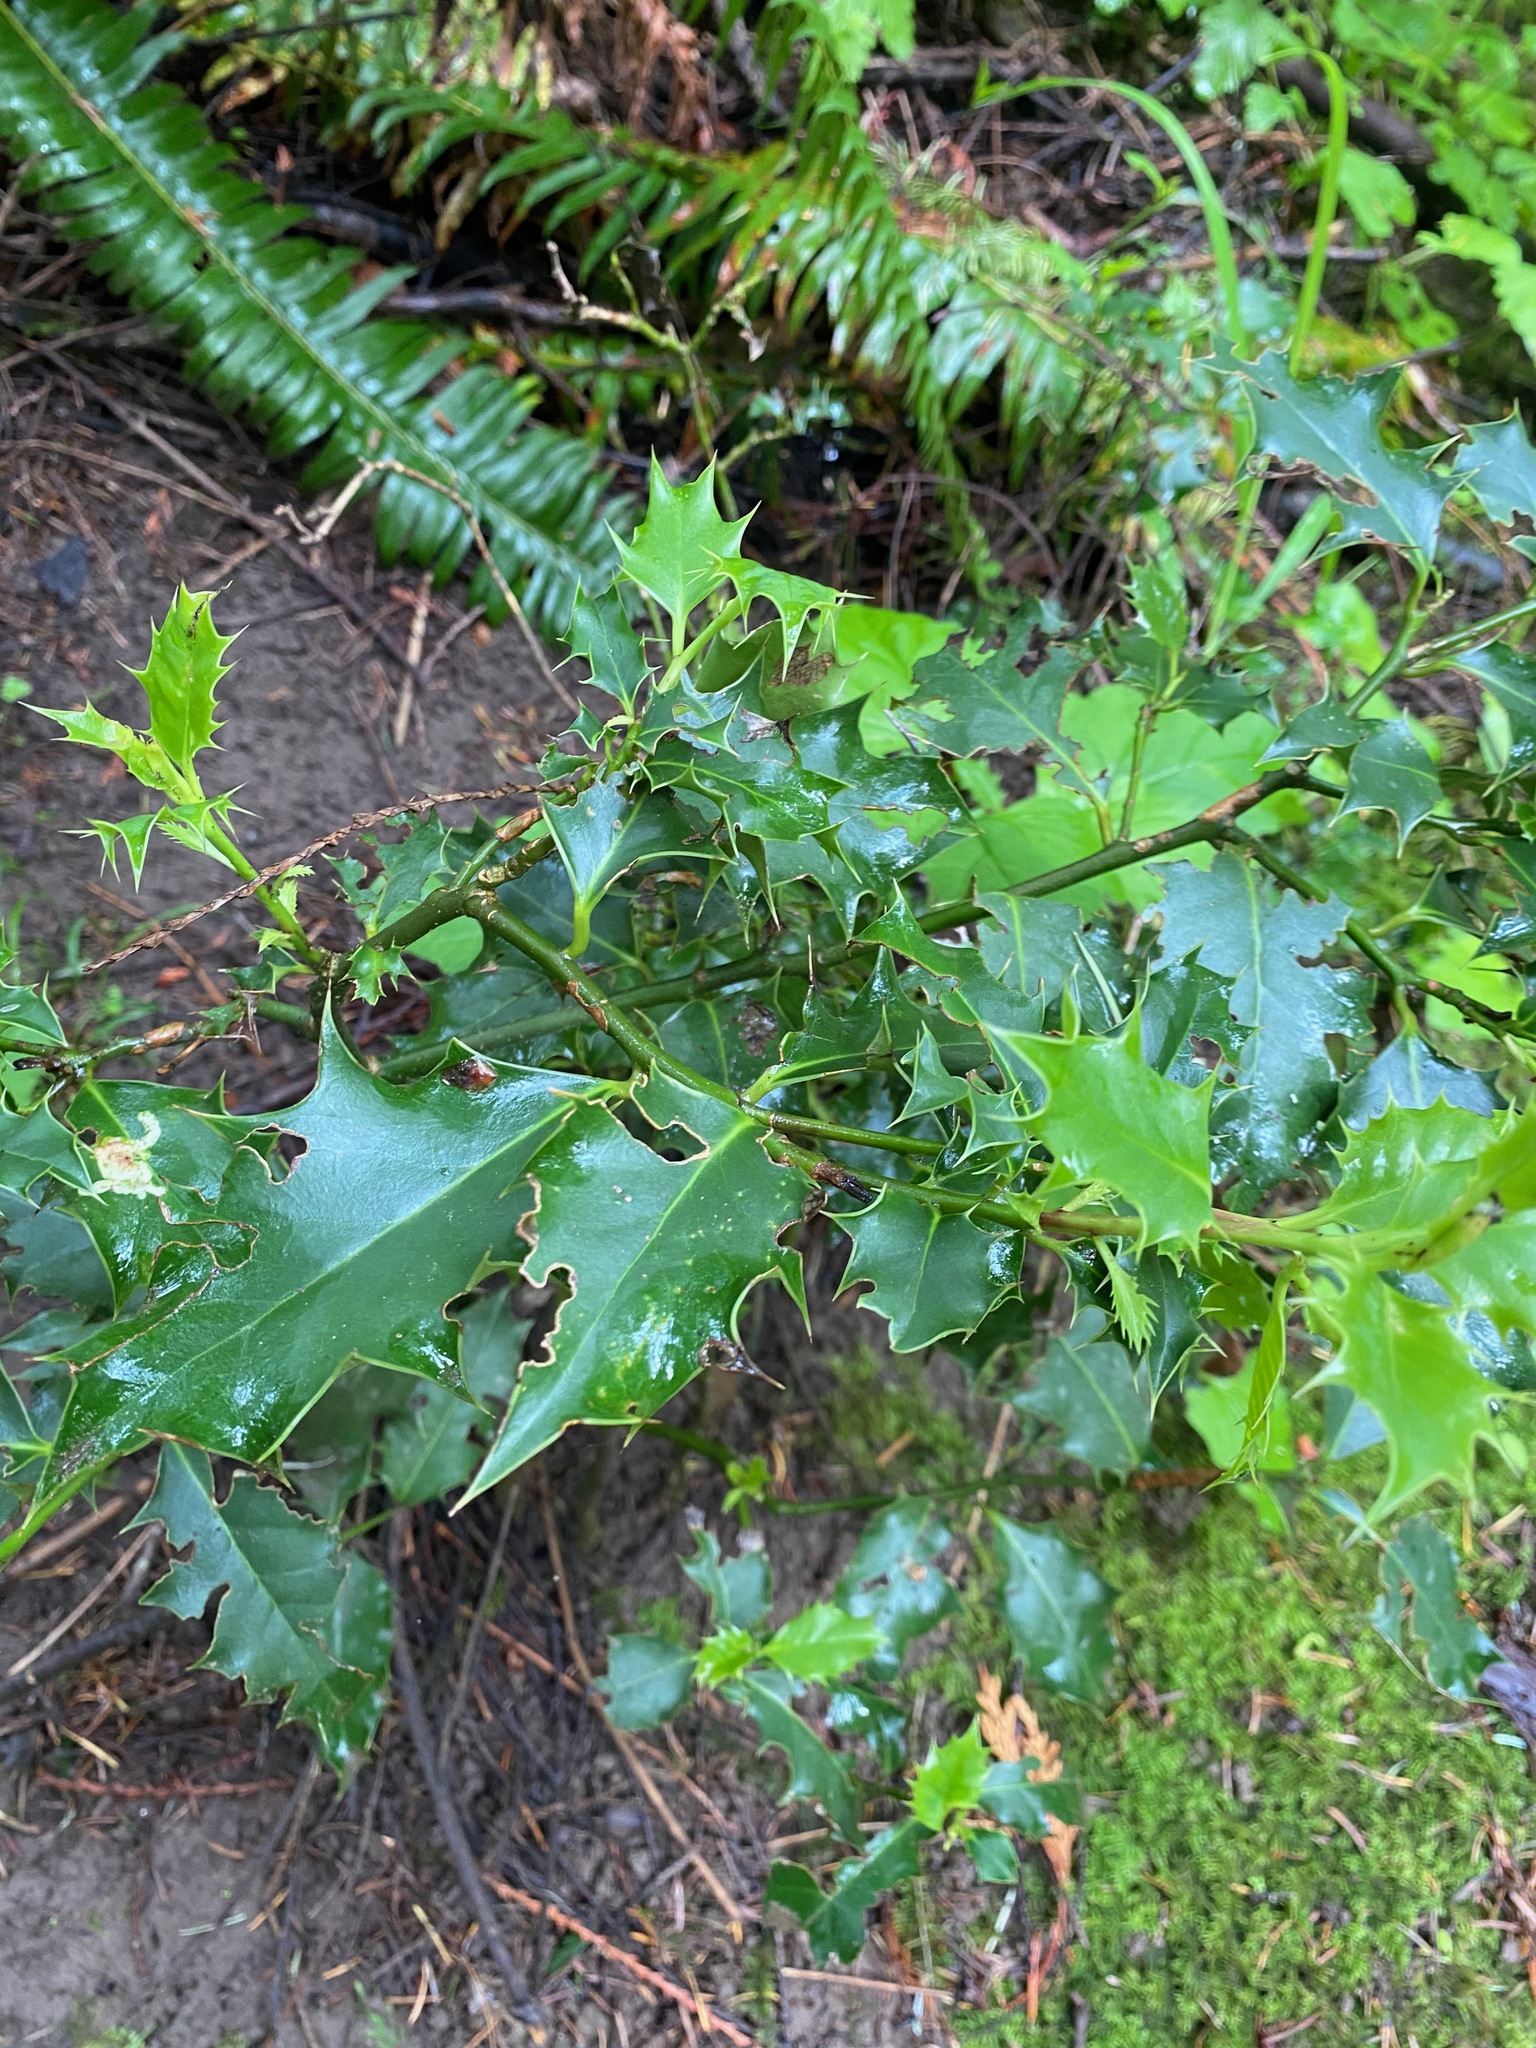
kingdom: Plantae
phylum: Tracheophyta
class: Magnoliopsida
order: Aquifoliales
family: Aquifoliaceae
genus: Ilex
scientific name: Ilex aquifolium
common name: English holly
